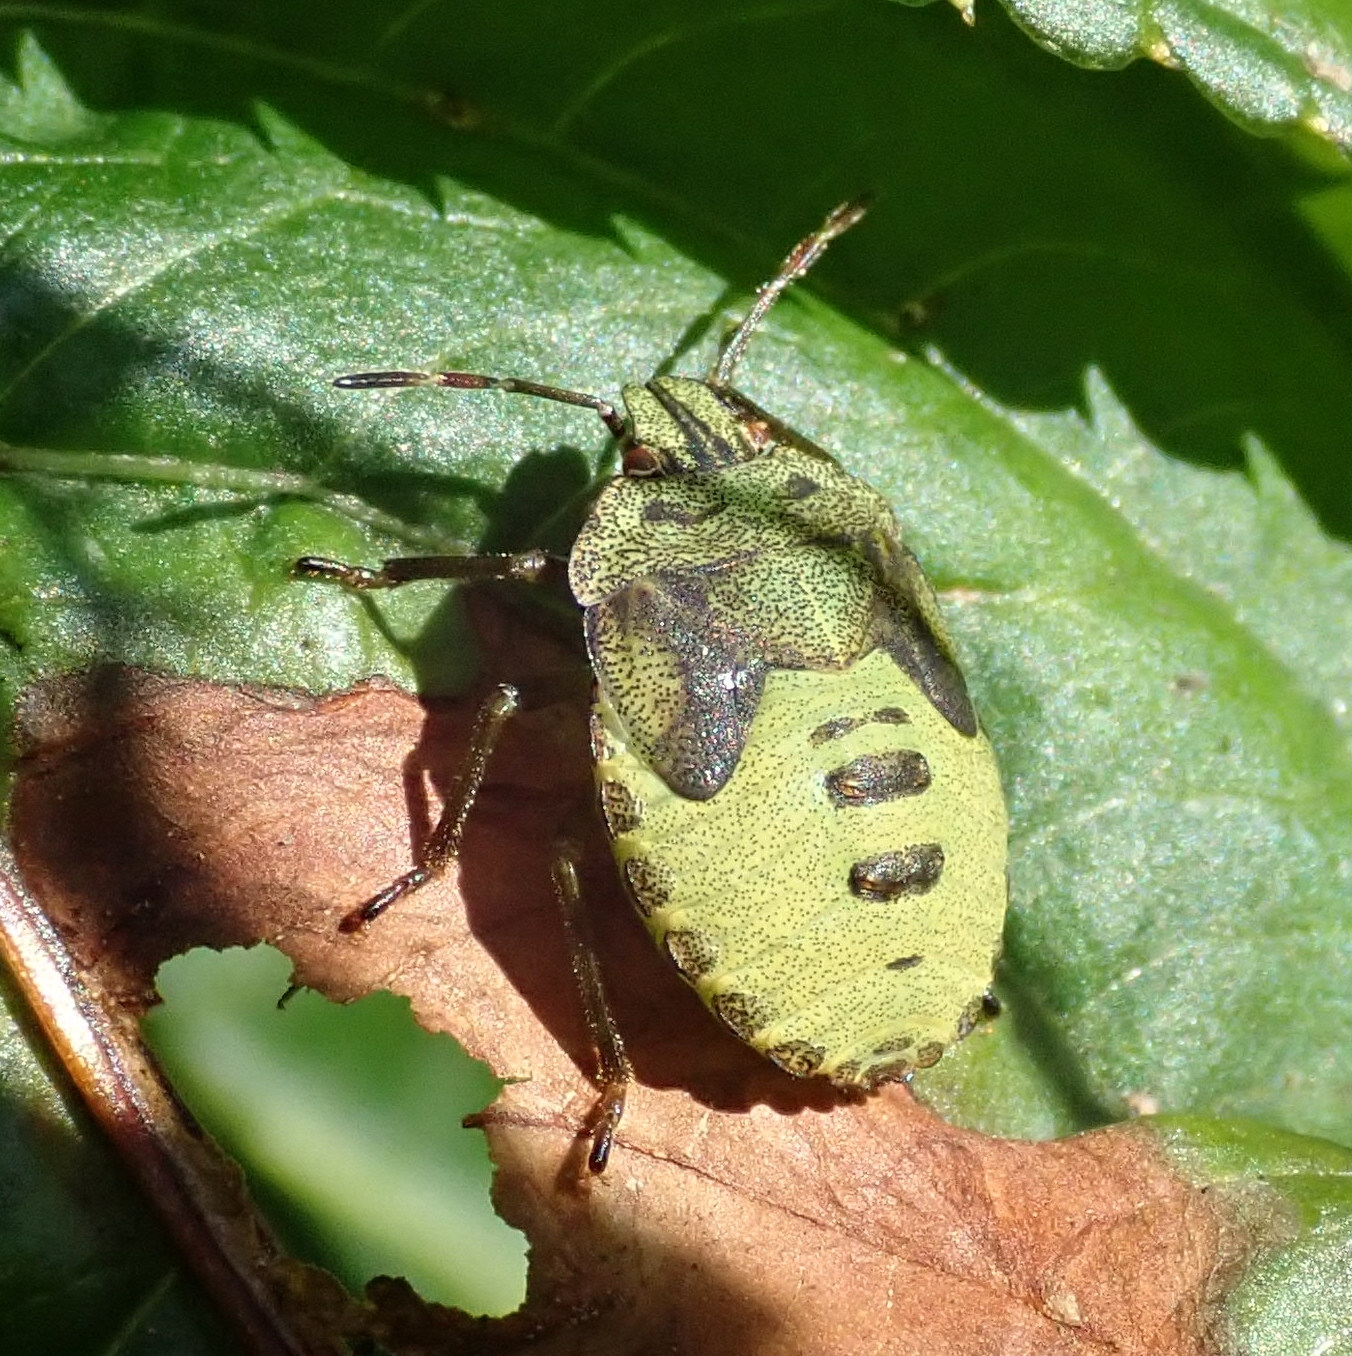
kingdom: Animalia
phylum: Arthropoda
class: Insecta
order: Hemiptera
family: Pentatomidae
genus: Palomena
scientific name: Palomena prasina
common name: Green shieldbug
